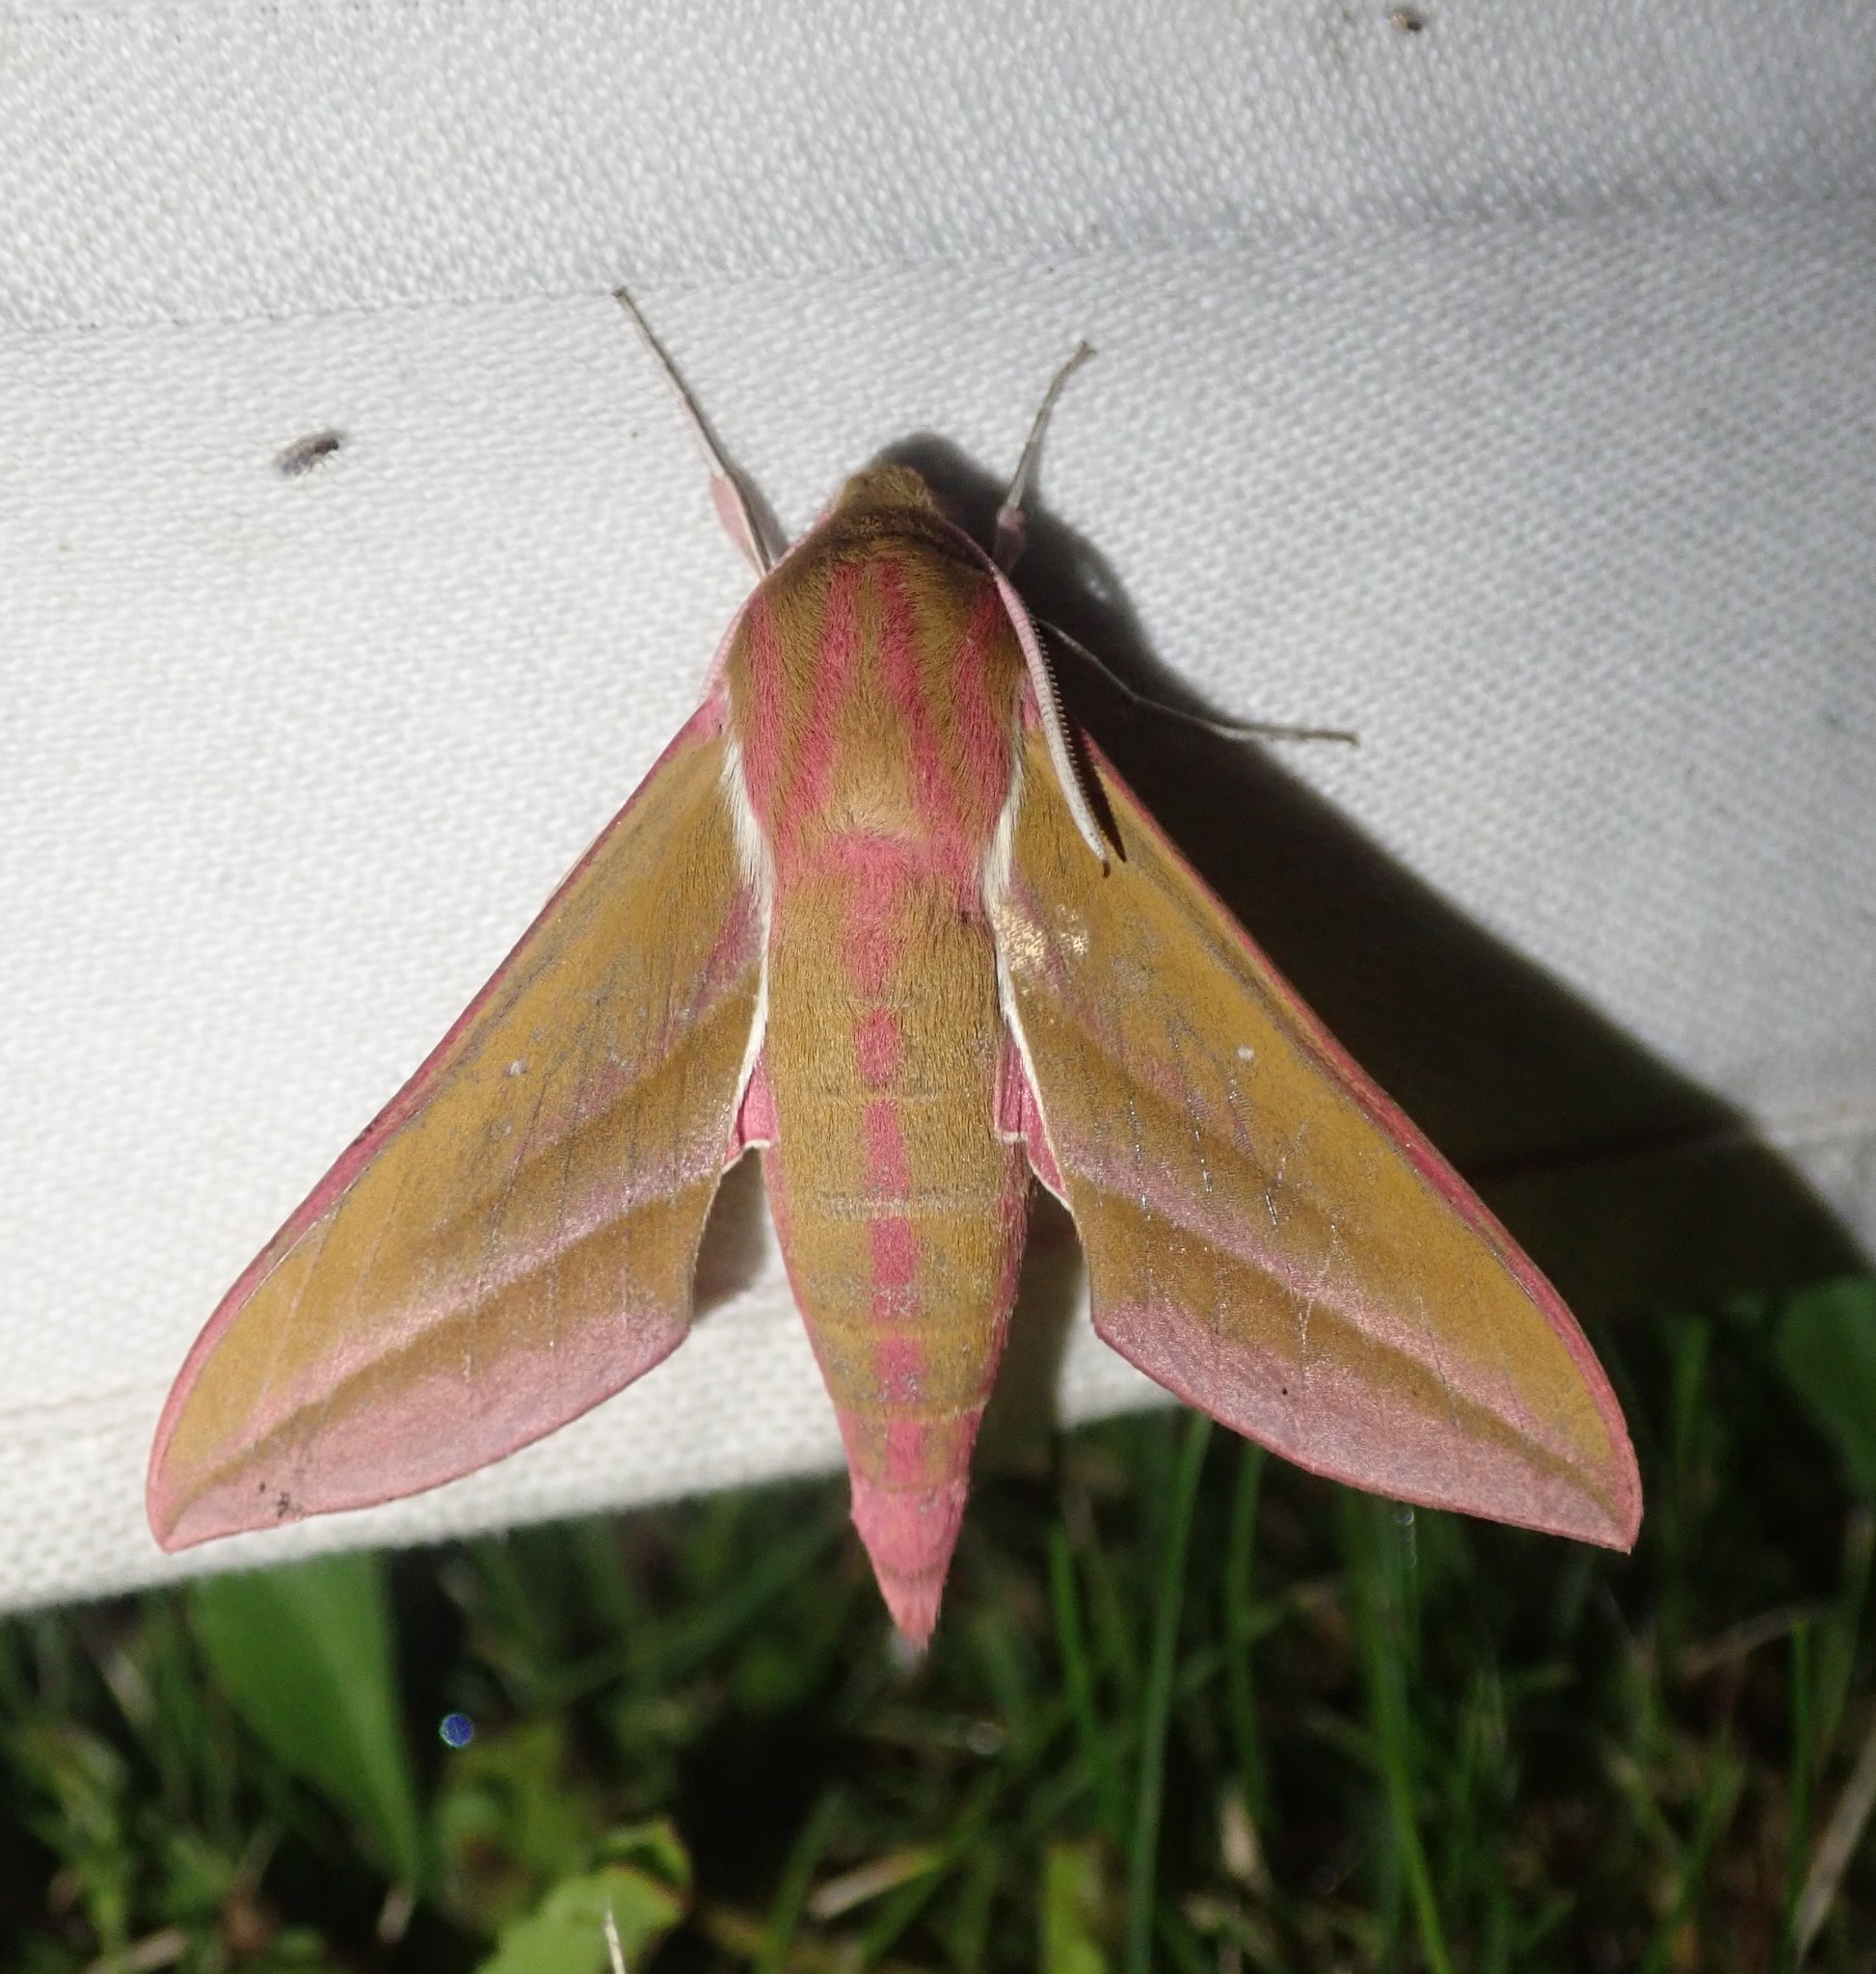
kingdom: Animalia
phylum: Arthropoda
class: Insecta
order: Lepidoptera
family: Sphingidae
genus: Deilephila
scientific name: Deilephila elpenor
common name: Elephant hawk-moth
